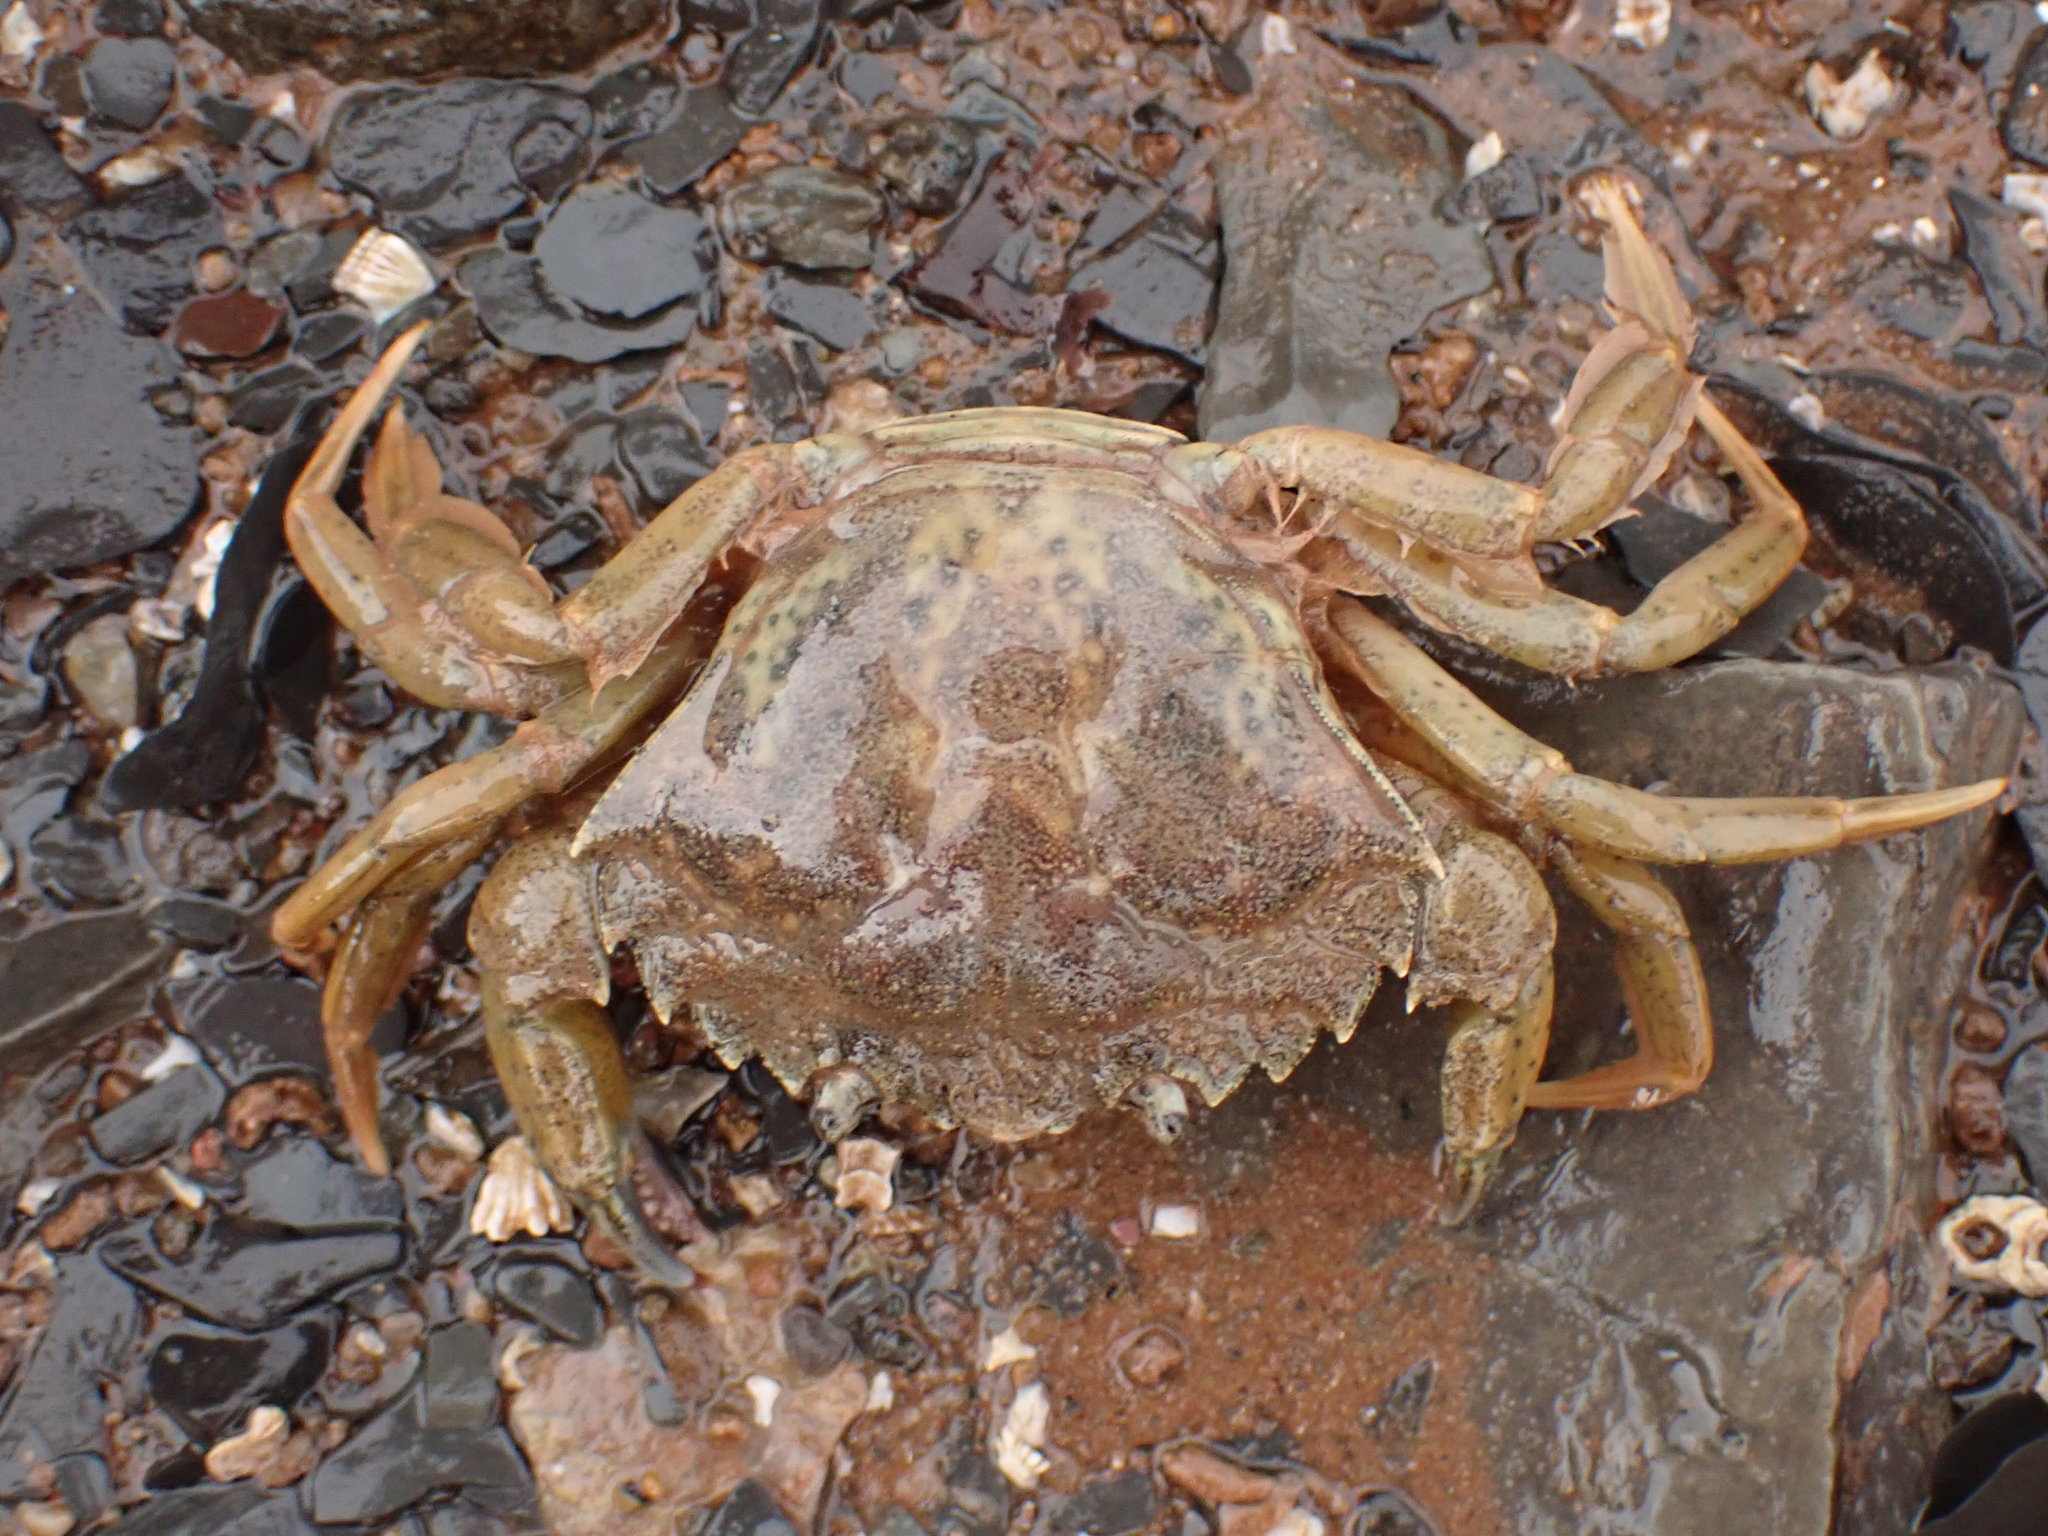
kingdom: Animalia
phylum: Arthropoda
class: Malacostraca
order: Decapoda
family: Carcinidae
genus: Carcinus
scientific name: Carcinus maenas
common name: European green crab
